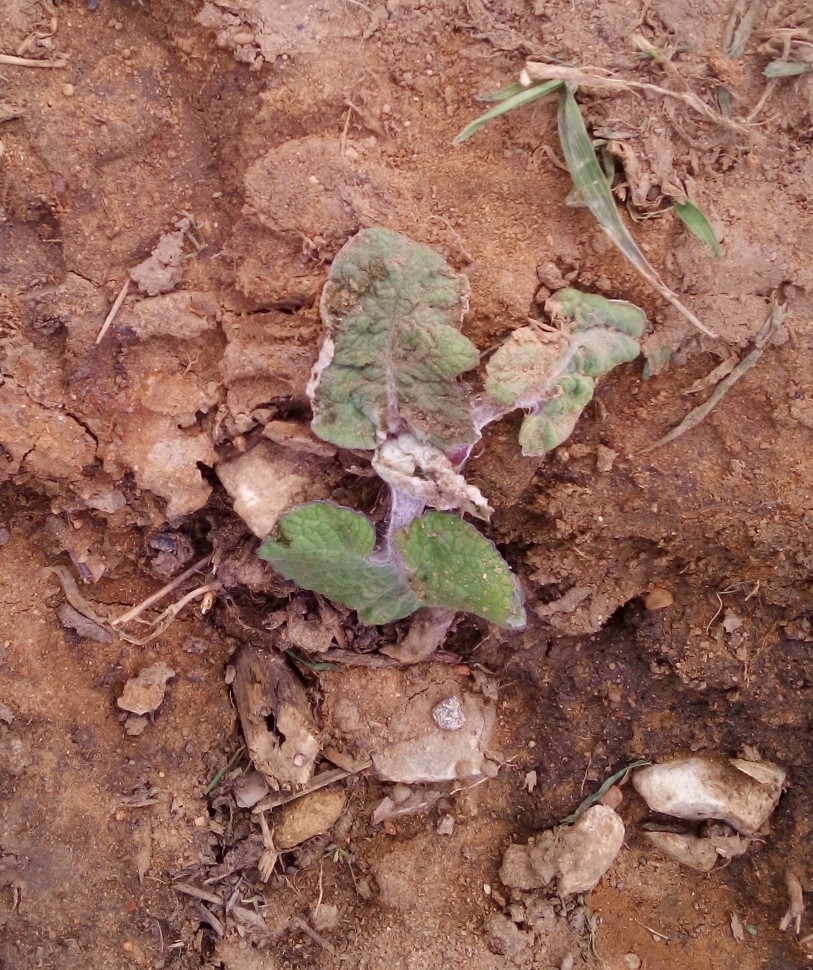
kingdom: Plantae
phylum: Tracheophyta
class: Magnoliopsida
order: Asterales
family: Asteraceae
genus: Arctium
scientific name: Arctium tomentosum
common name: Woolly burdock
